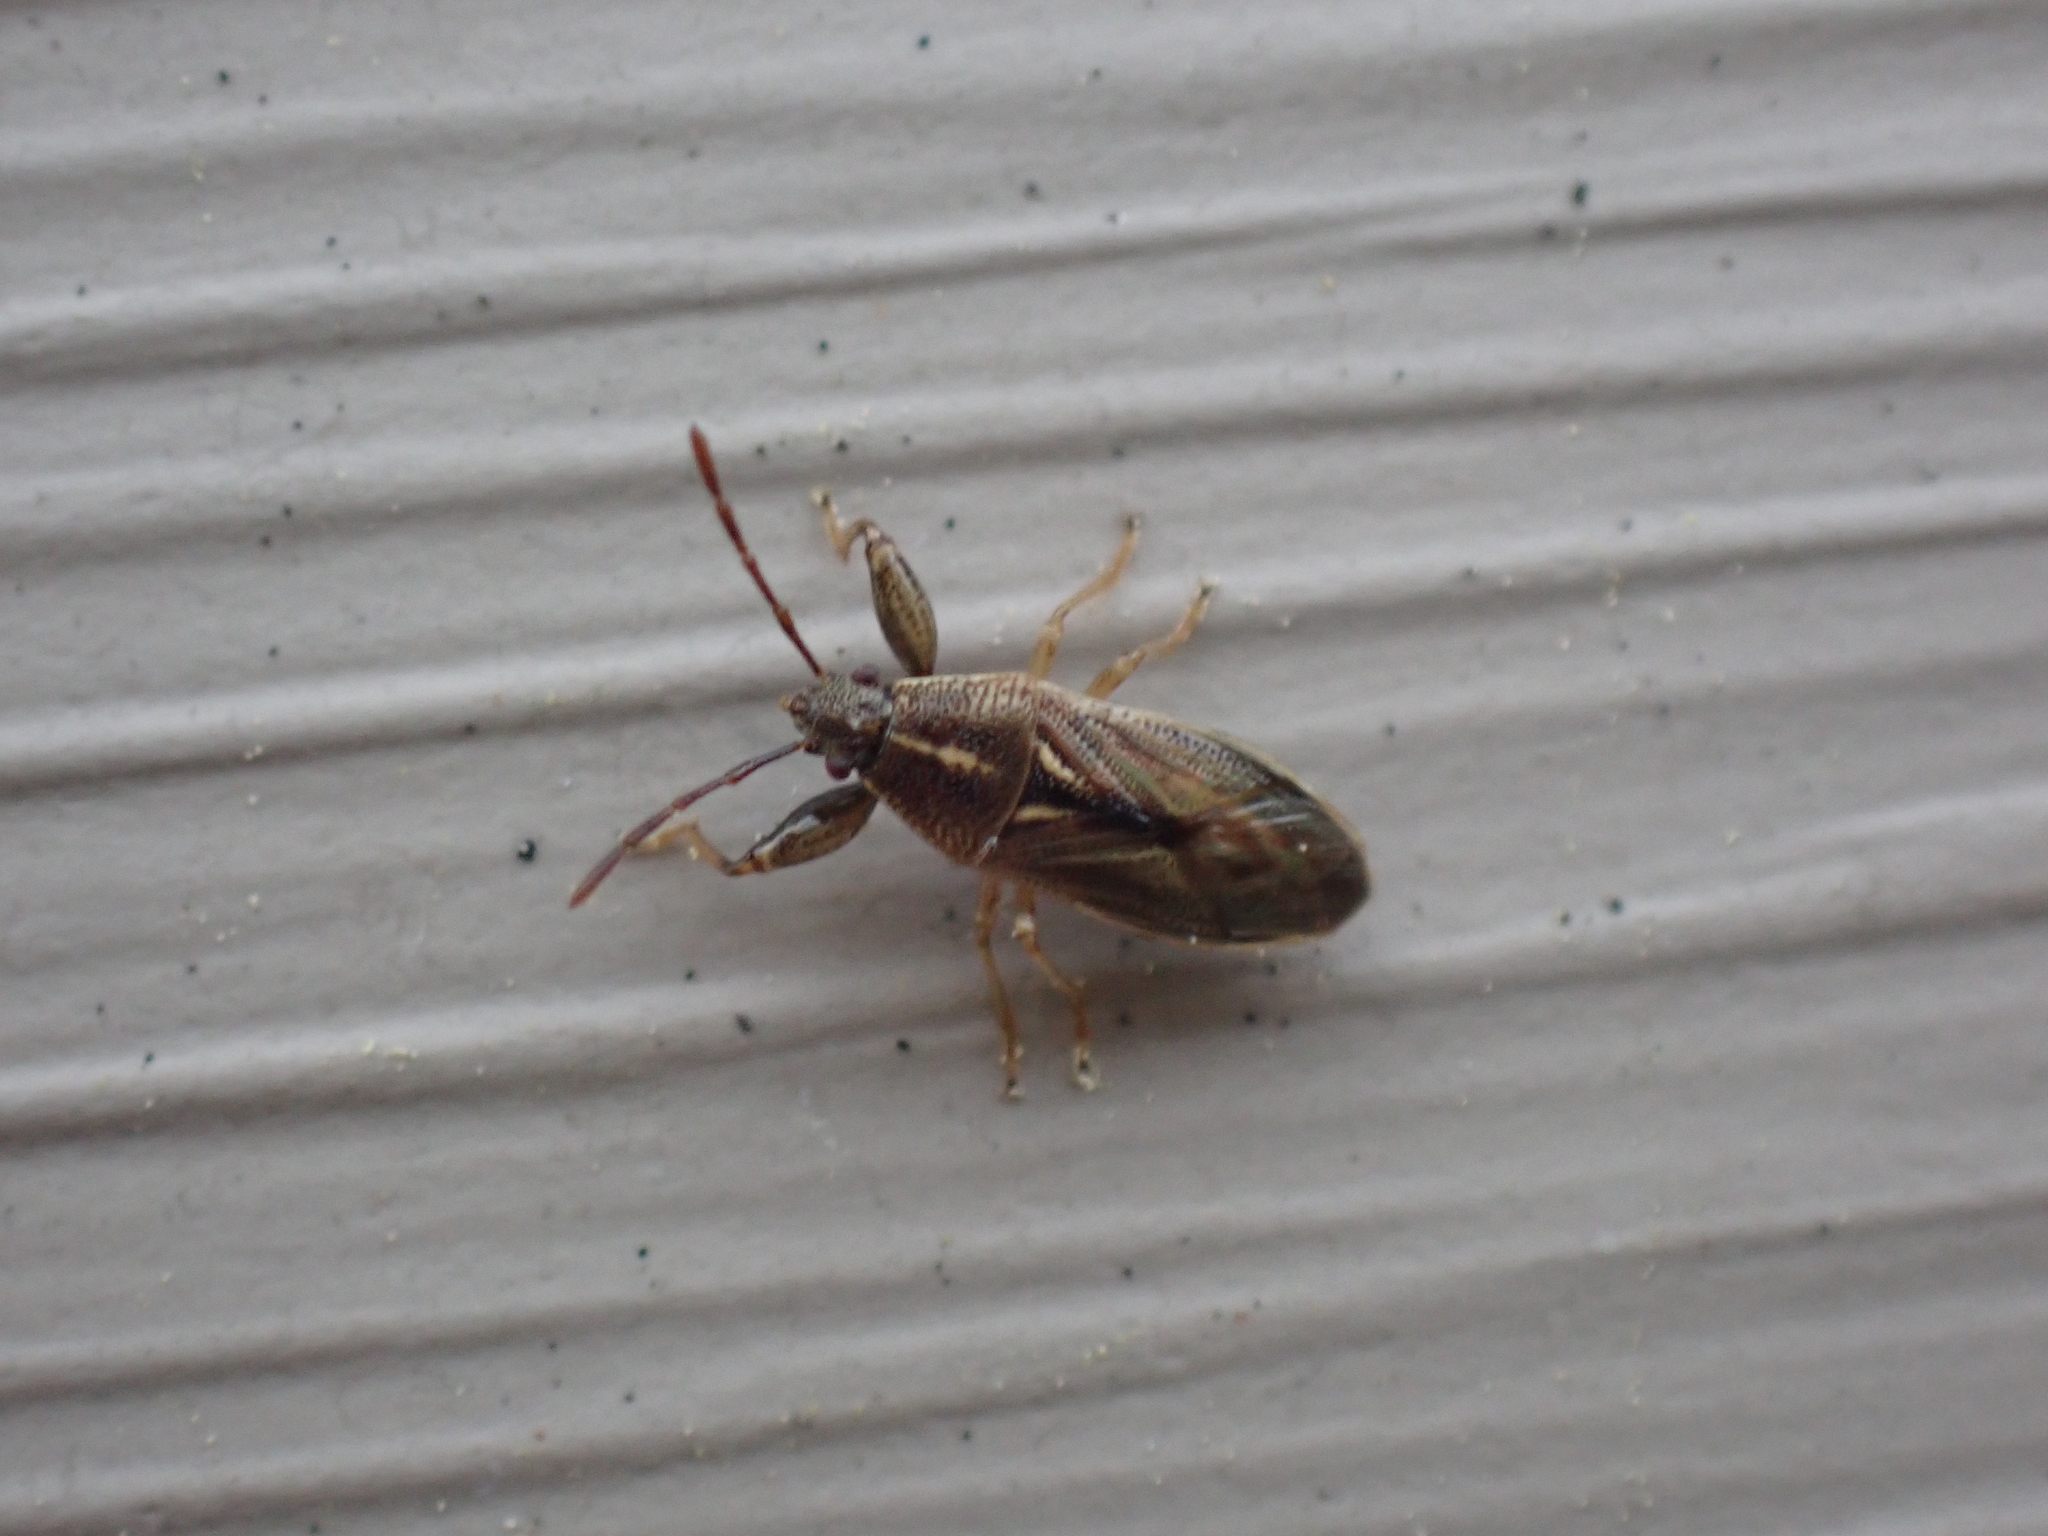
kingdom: Animalia
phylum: Arthropoda
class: Insecta
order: Hemiptera
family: Pachygronthidae
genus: Oedancala
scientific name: Oedancala dorsalis
